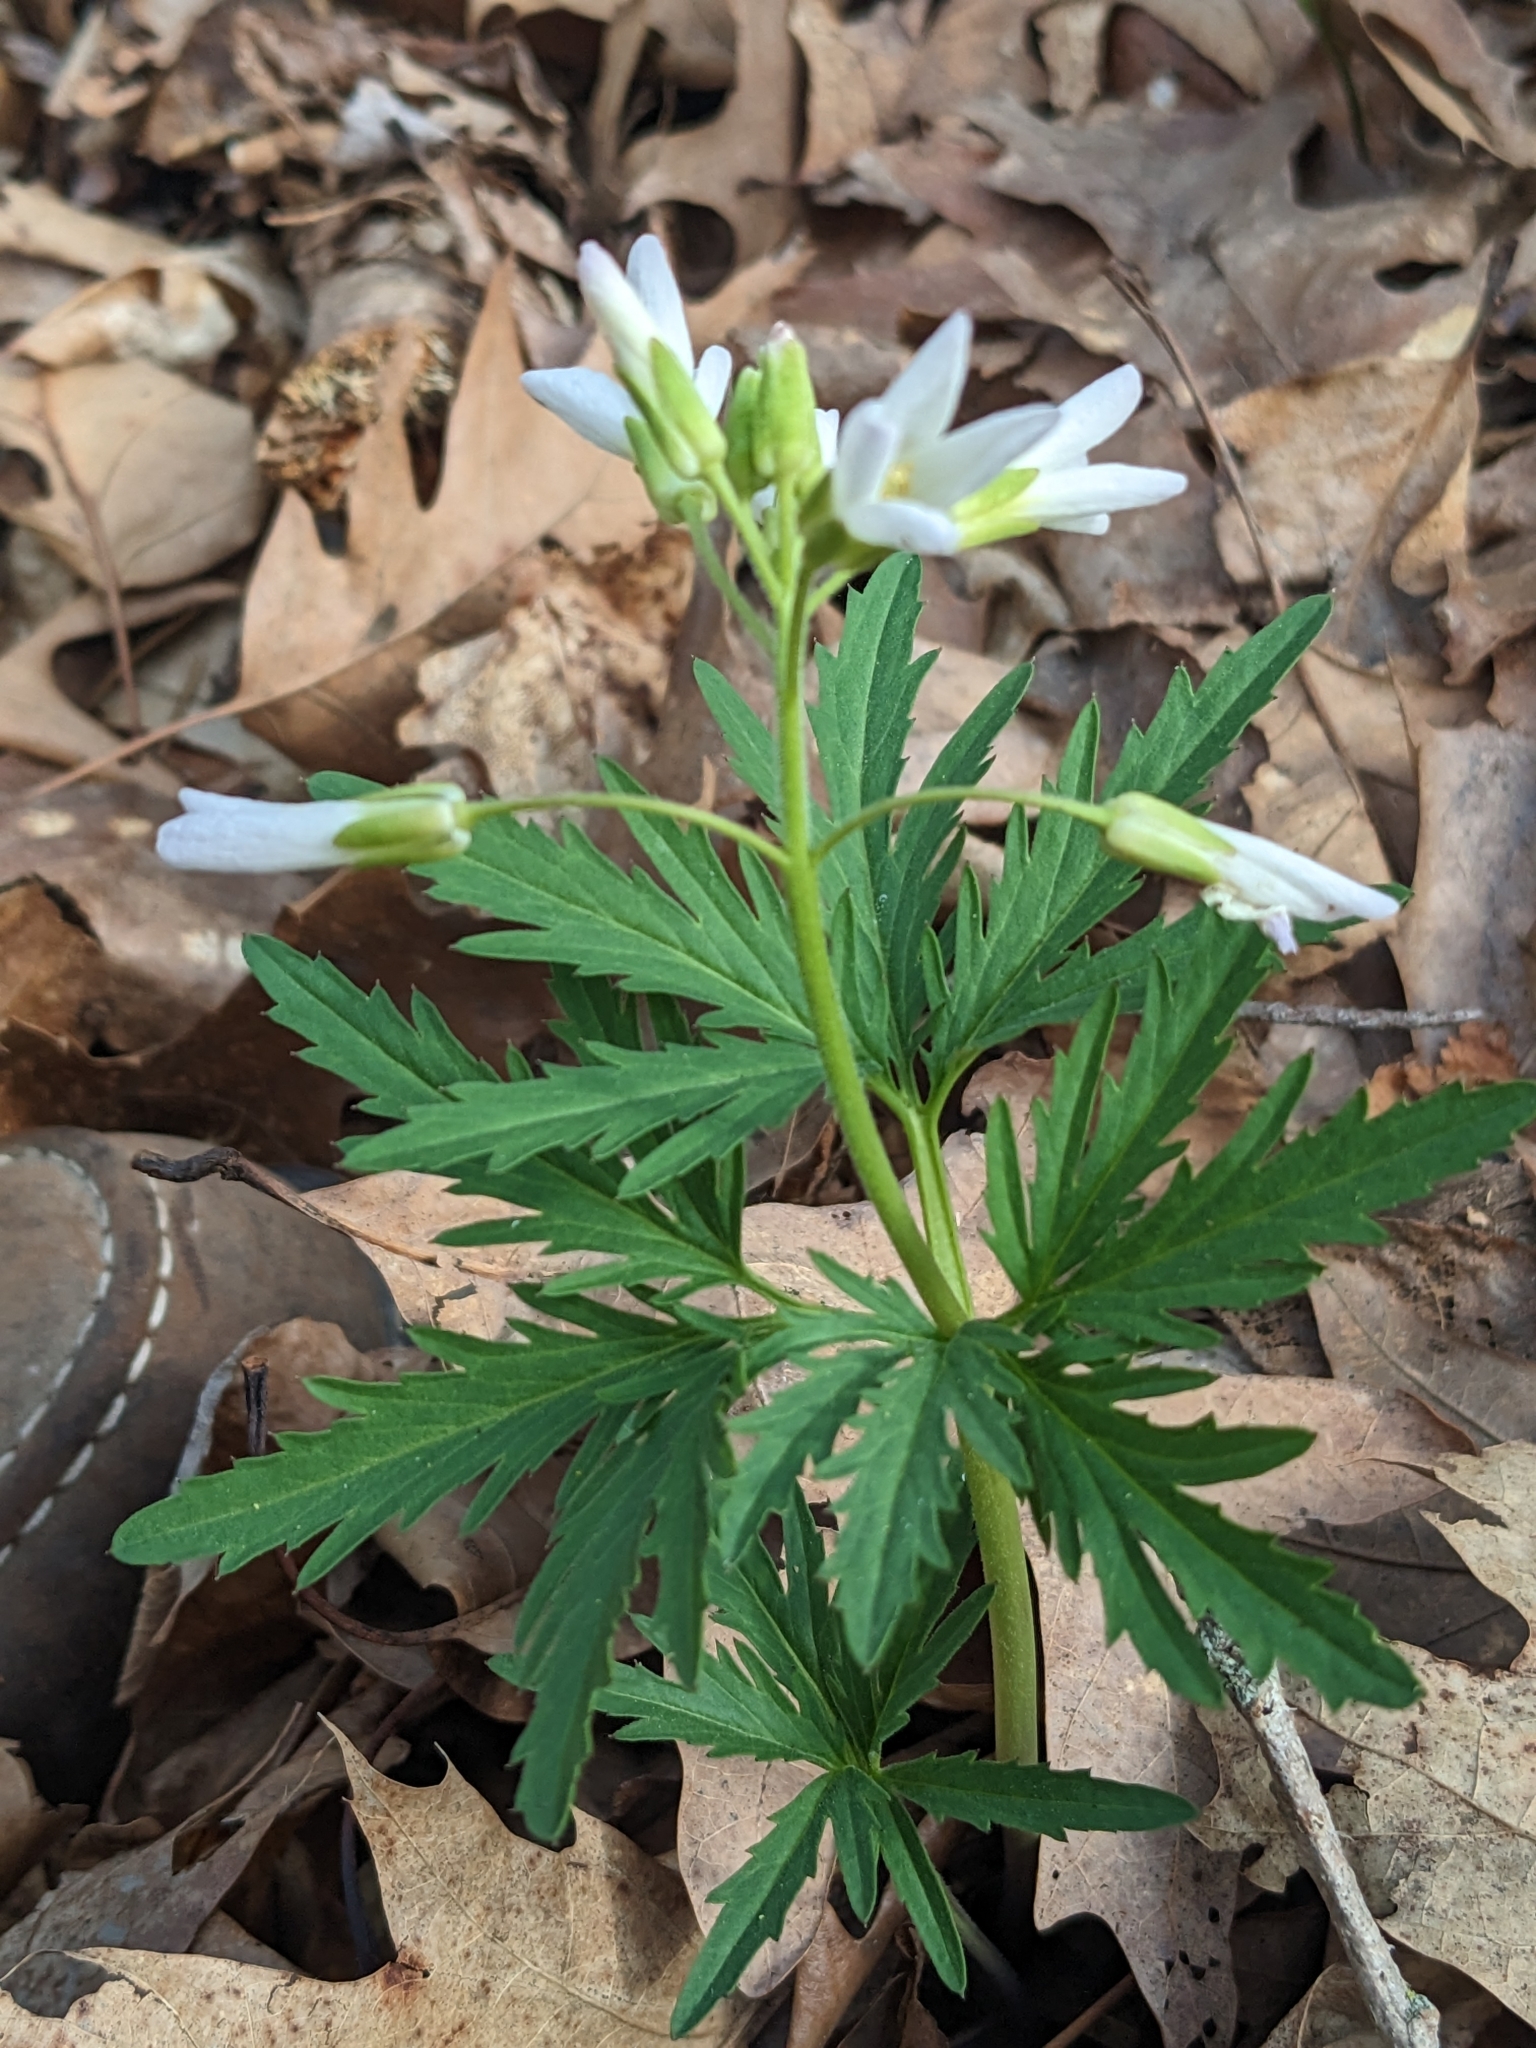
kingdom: Plantae
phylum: Tracheophyta
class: Magnoliopsida
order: Brassicales
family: Brassicaceae
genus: Cardamine
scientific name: Cardamine concatenata
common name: Cut-leaf toothcup
